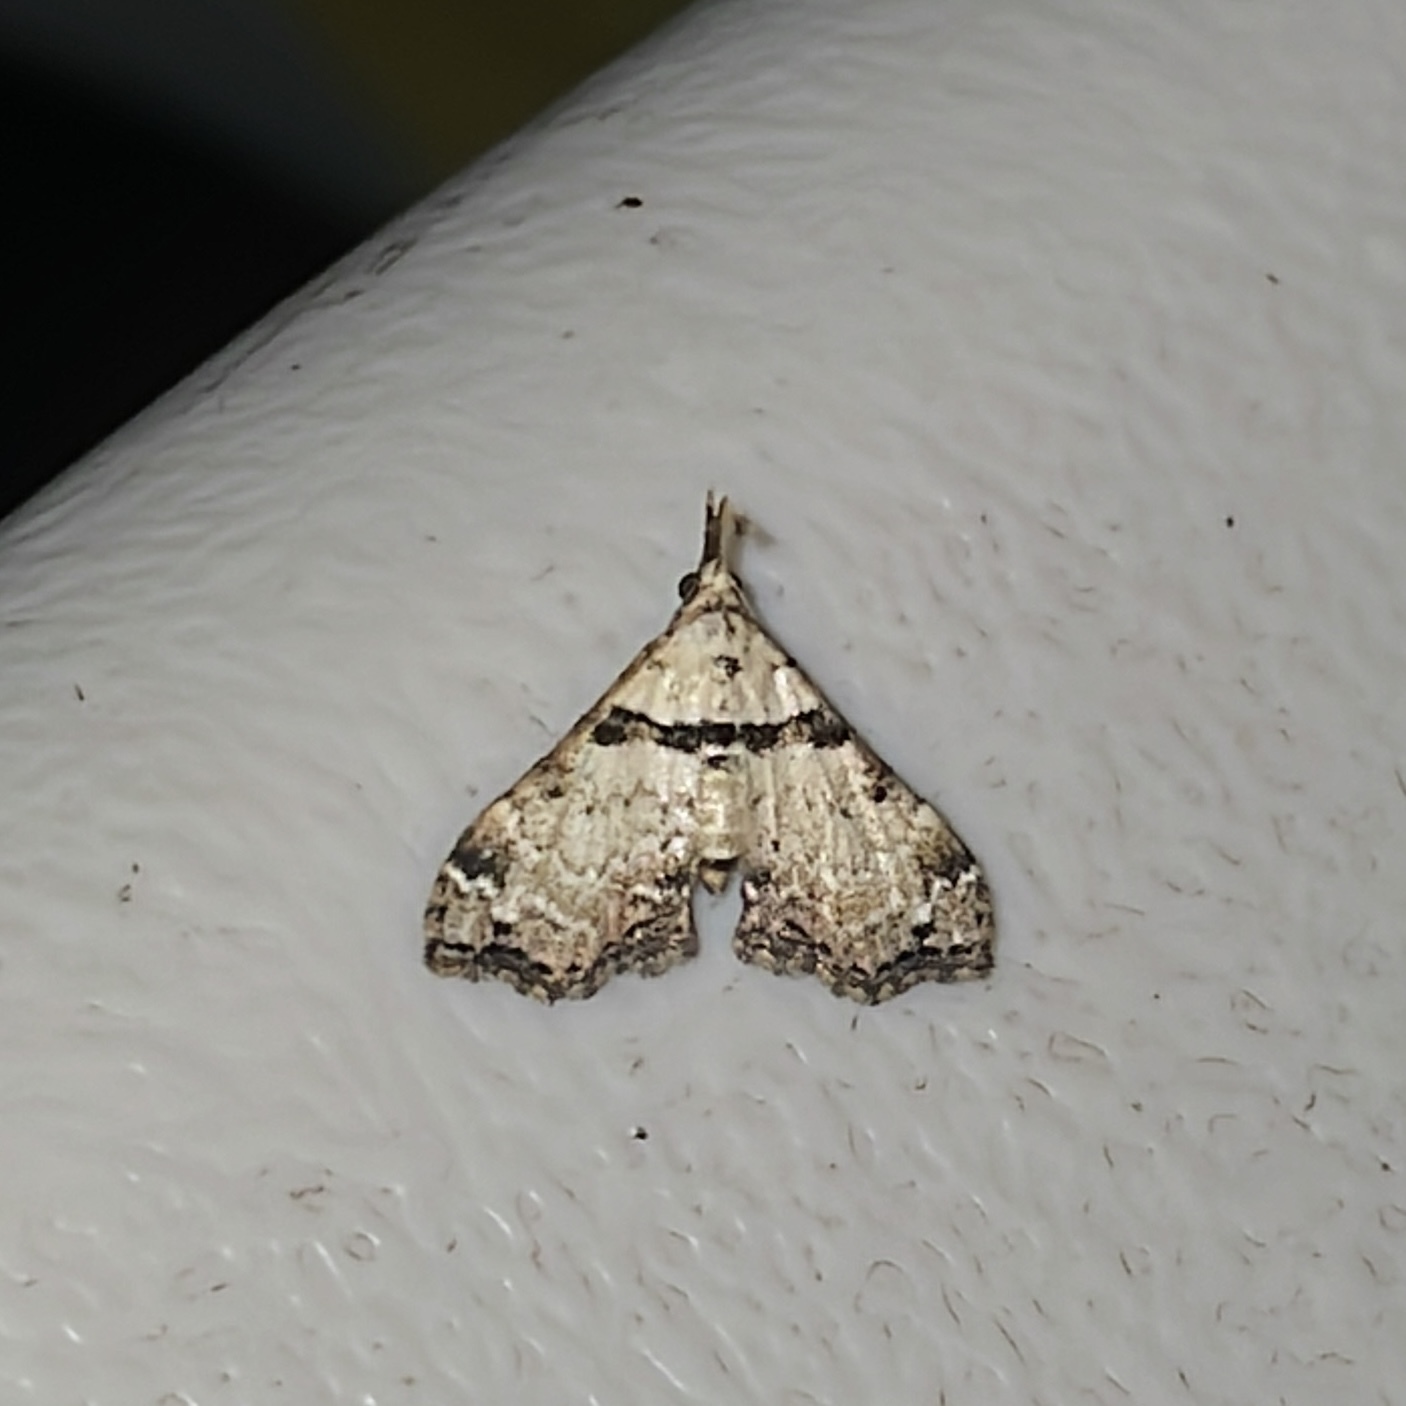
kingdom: Animalia
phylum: Arthropoda
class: Insecta
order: Lepidoptera
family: Erebidae
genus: Lascoria
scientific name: Lascoria nivea
